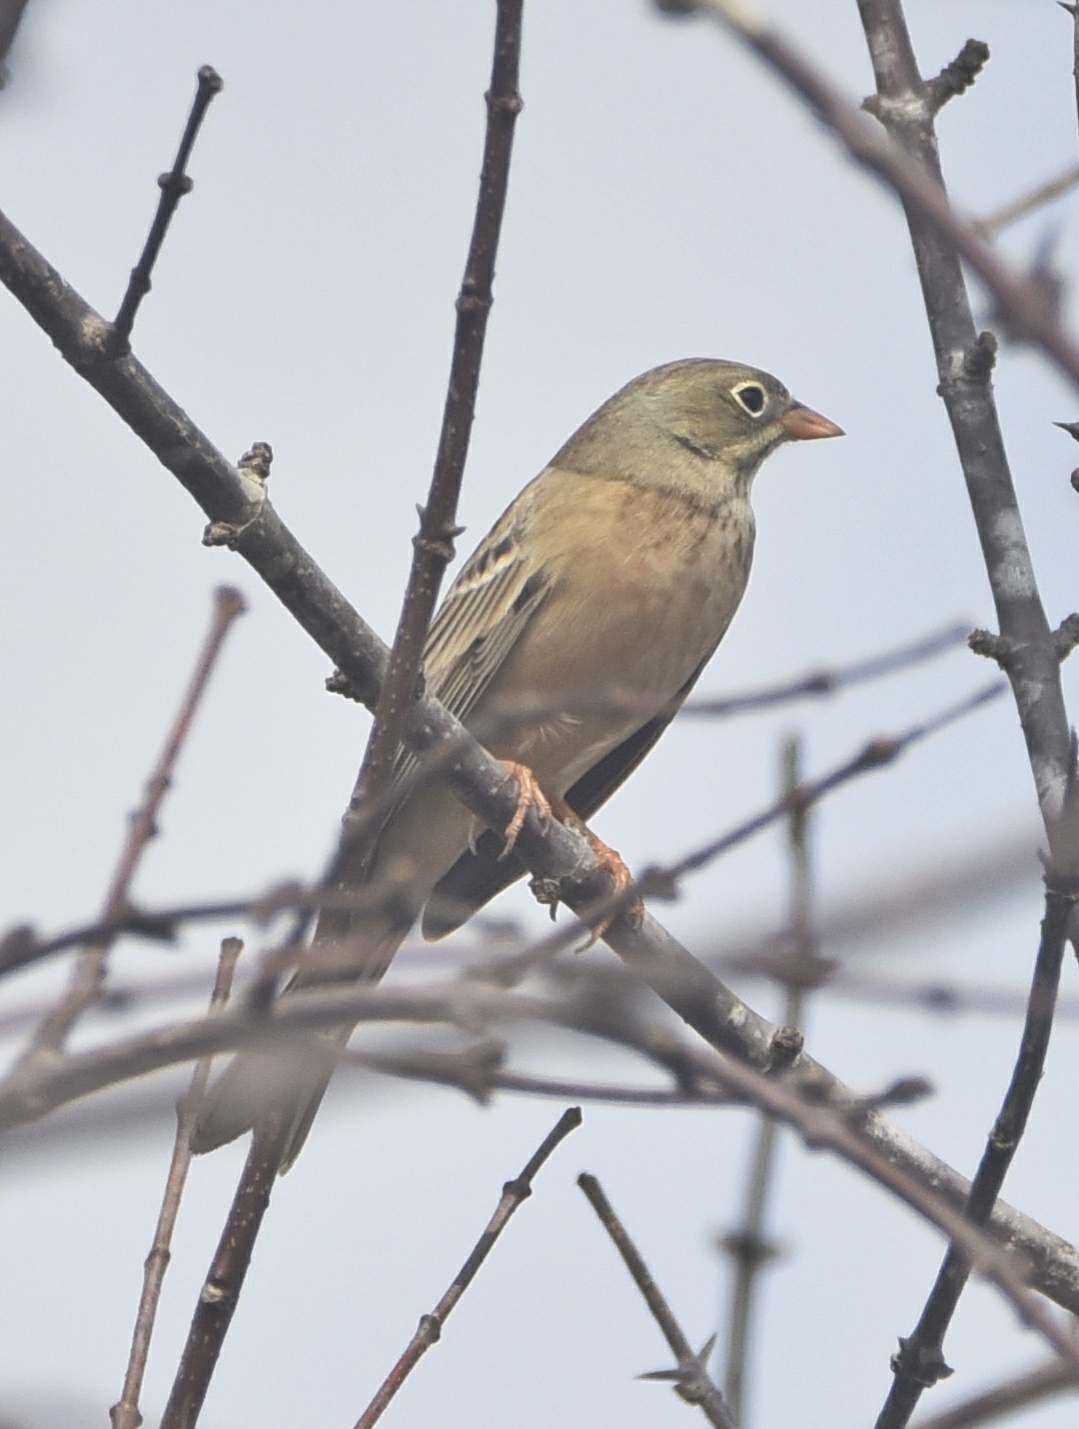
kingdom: Animalia
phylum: Chordata
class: Aves
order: Passeriformes
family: Emberizidae
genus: Emberiza
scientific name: Emberiza buchanani
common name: Grey-necked bunting
